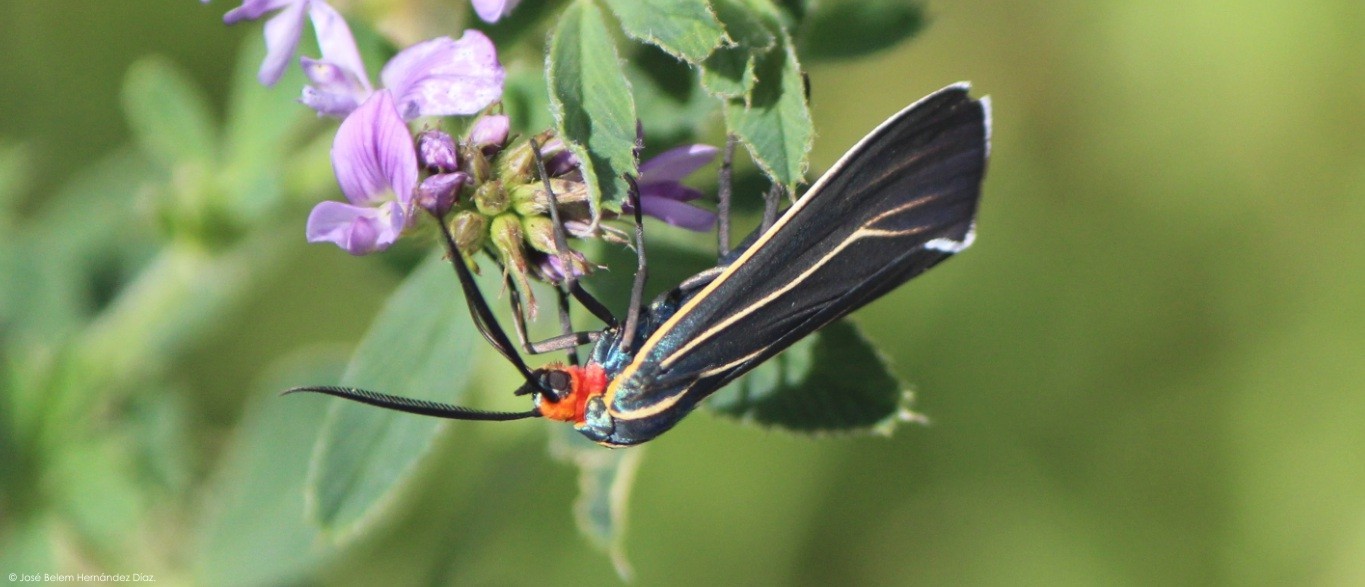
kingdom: Animalia
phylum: Arthropoda
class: Insecta
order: Lepidoptera
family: Erebidae
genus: Ctenucha
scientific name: Ctenucha venosa
